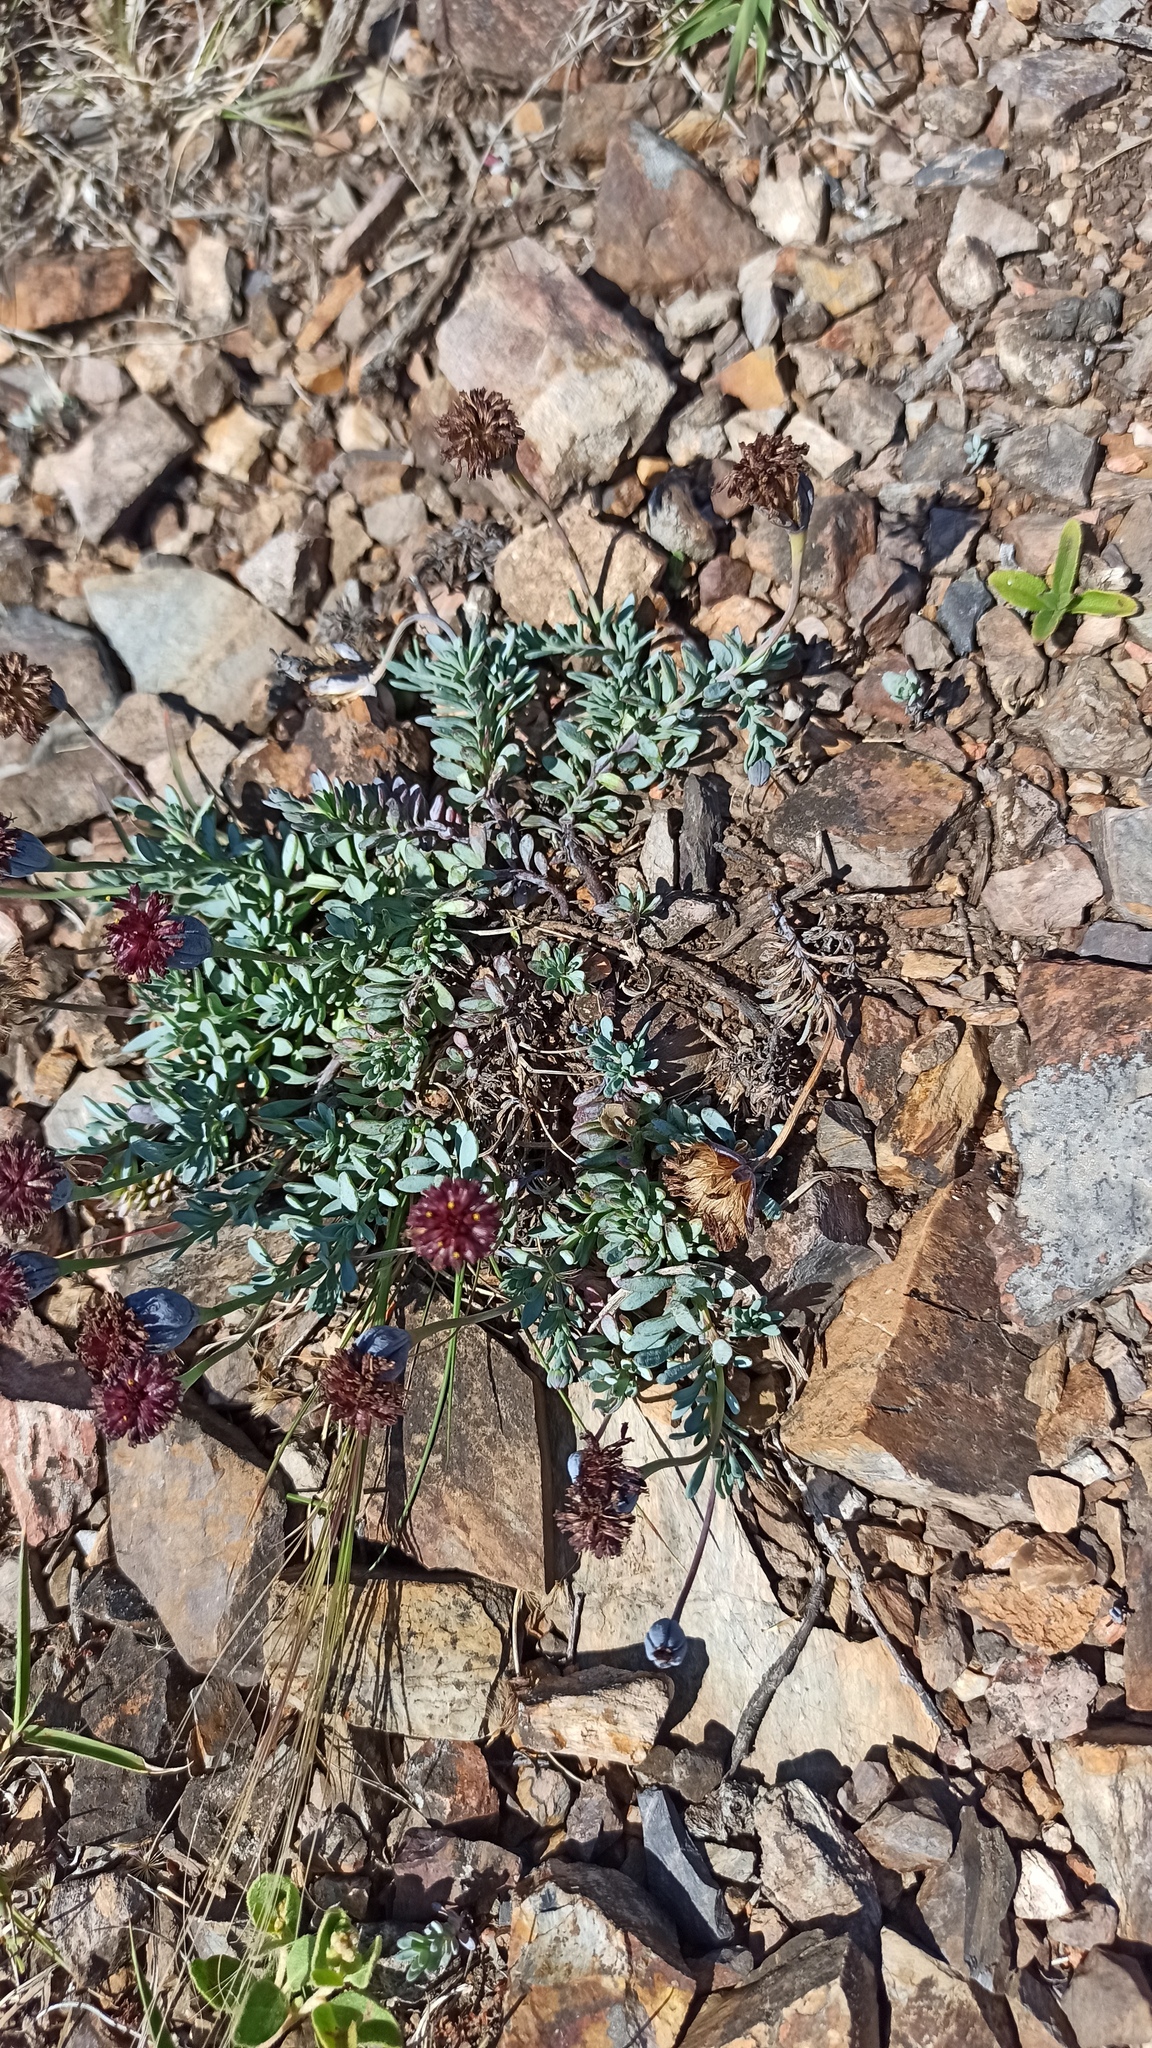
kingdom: Plantae
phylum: Tracheophyta
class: Magnoliopsida
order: Asterales
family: Asteraceae
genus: Porophyllum
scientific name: Porophyllum linifolium
